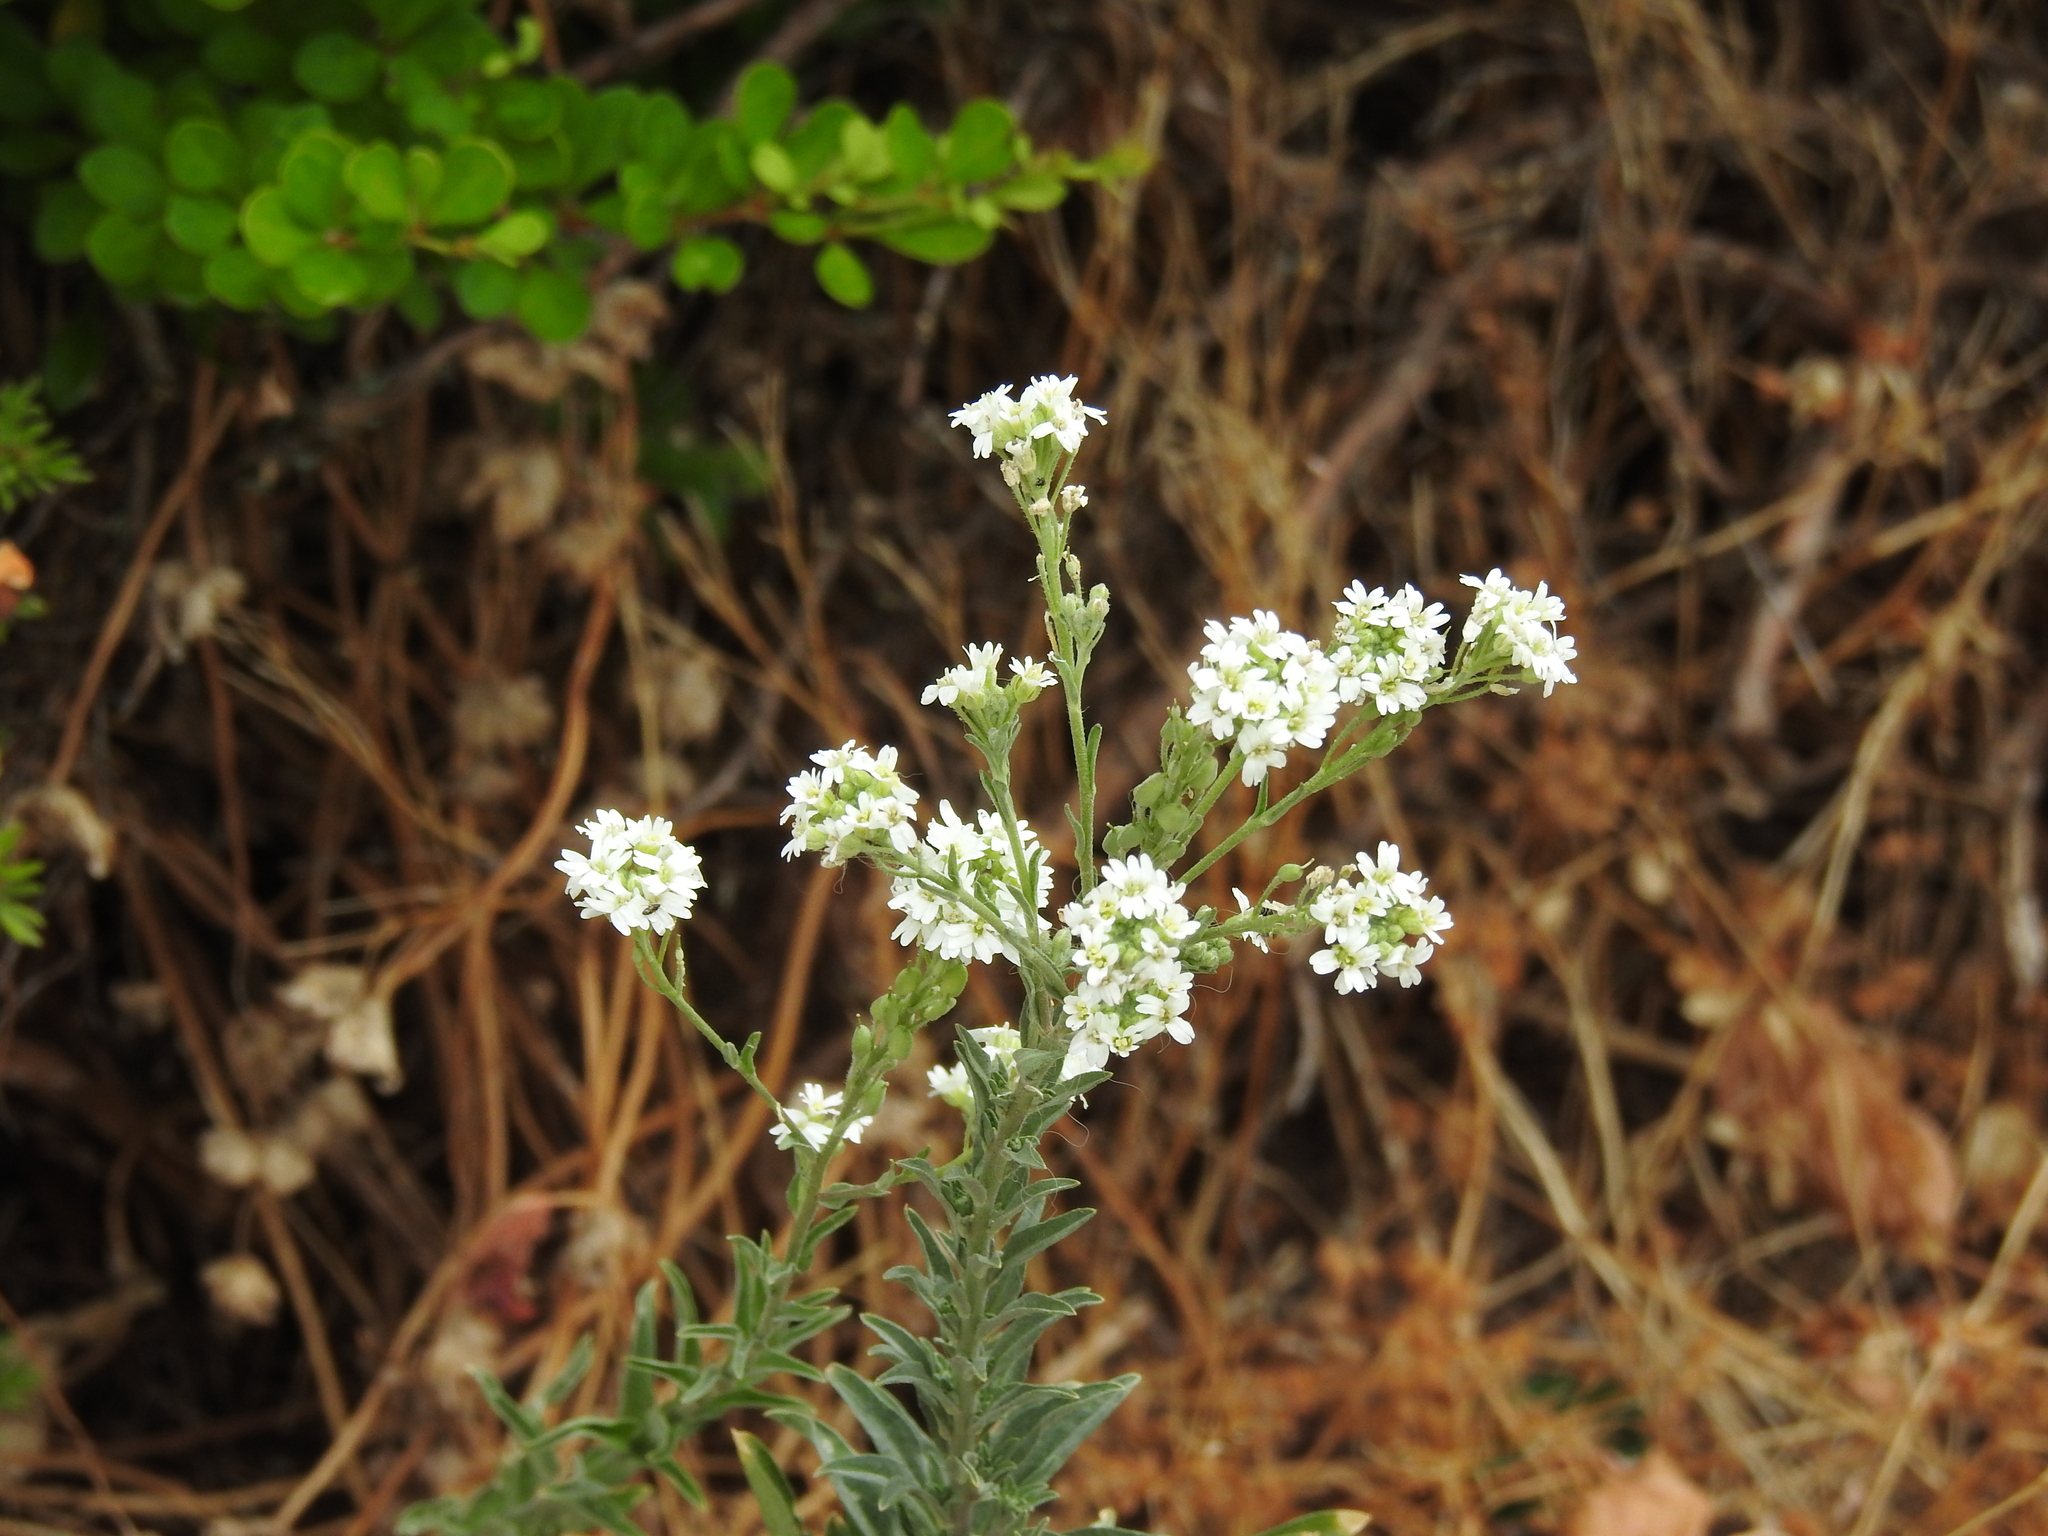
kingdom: Plantae
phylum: Tracheophyta
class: Magnoliopsida
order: Brassicales
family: Brassicaceae
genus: Berteroa
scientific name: Berteroa incana
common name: Hoary alison
